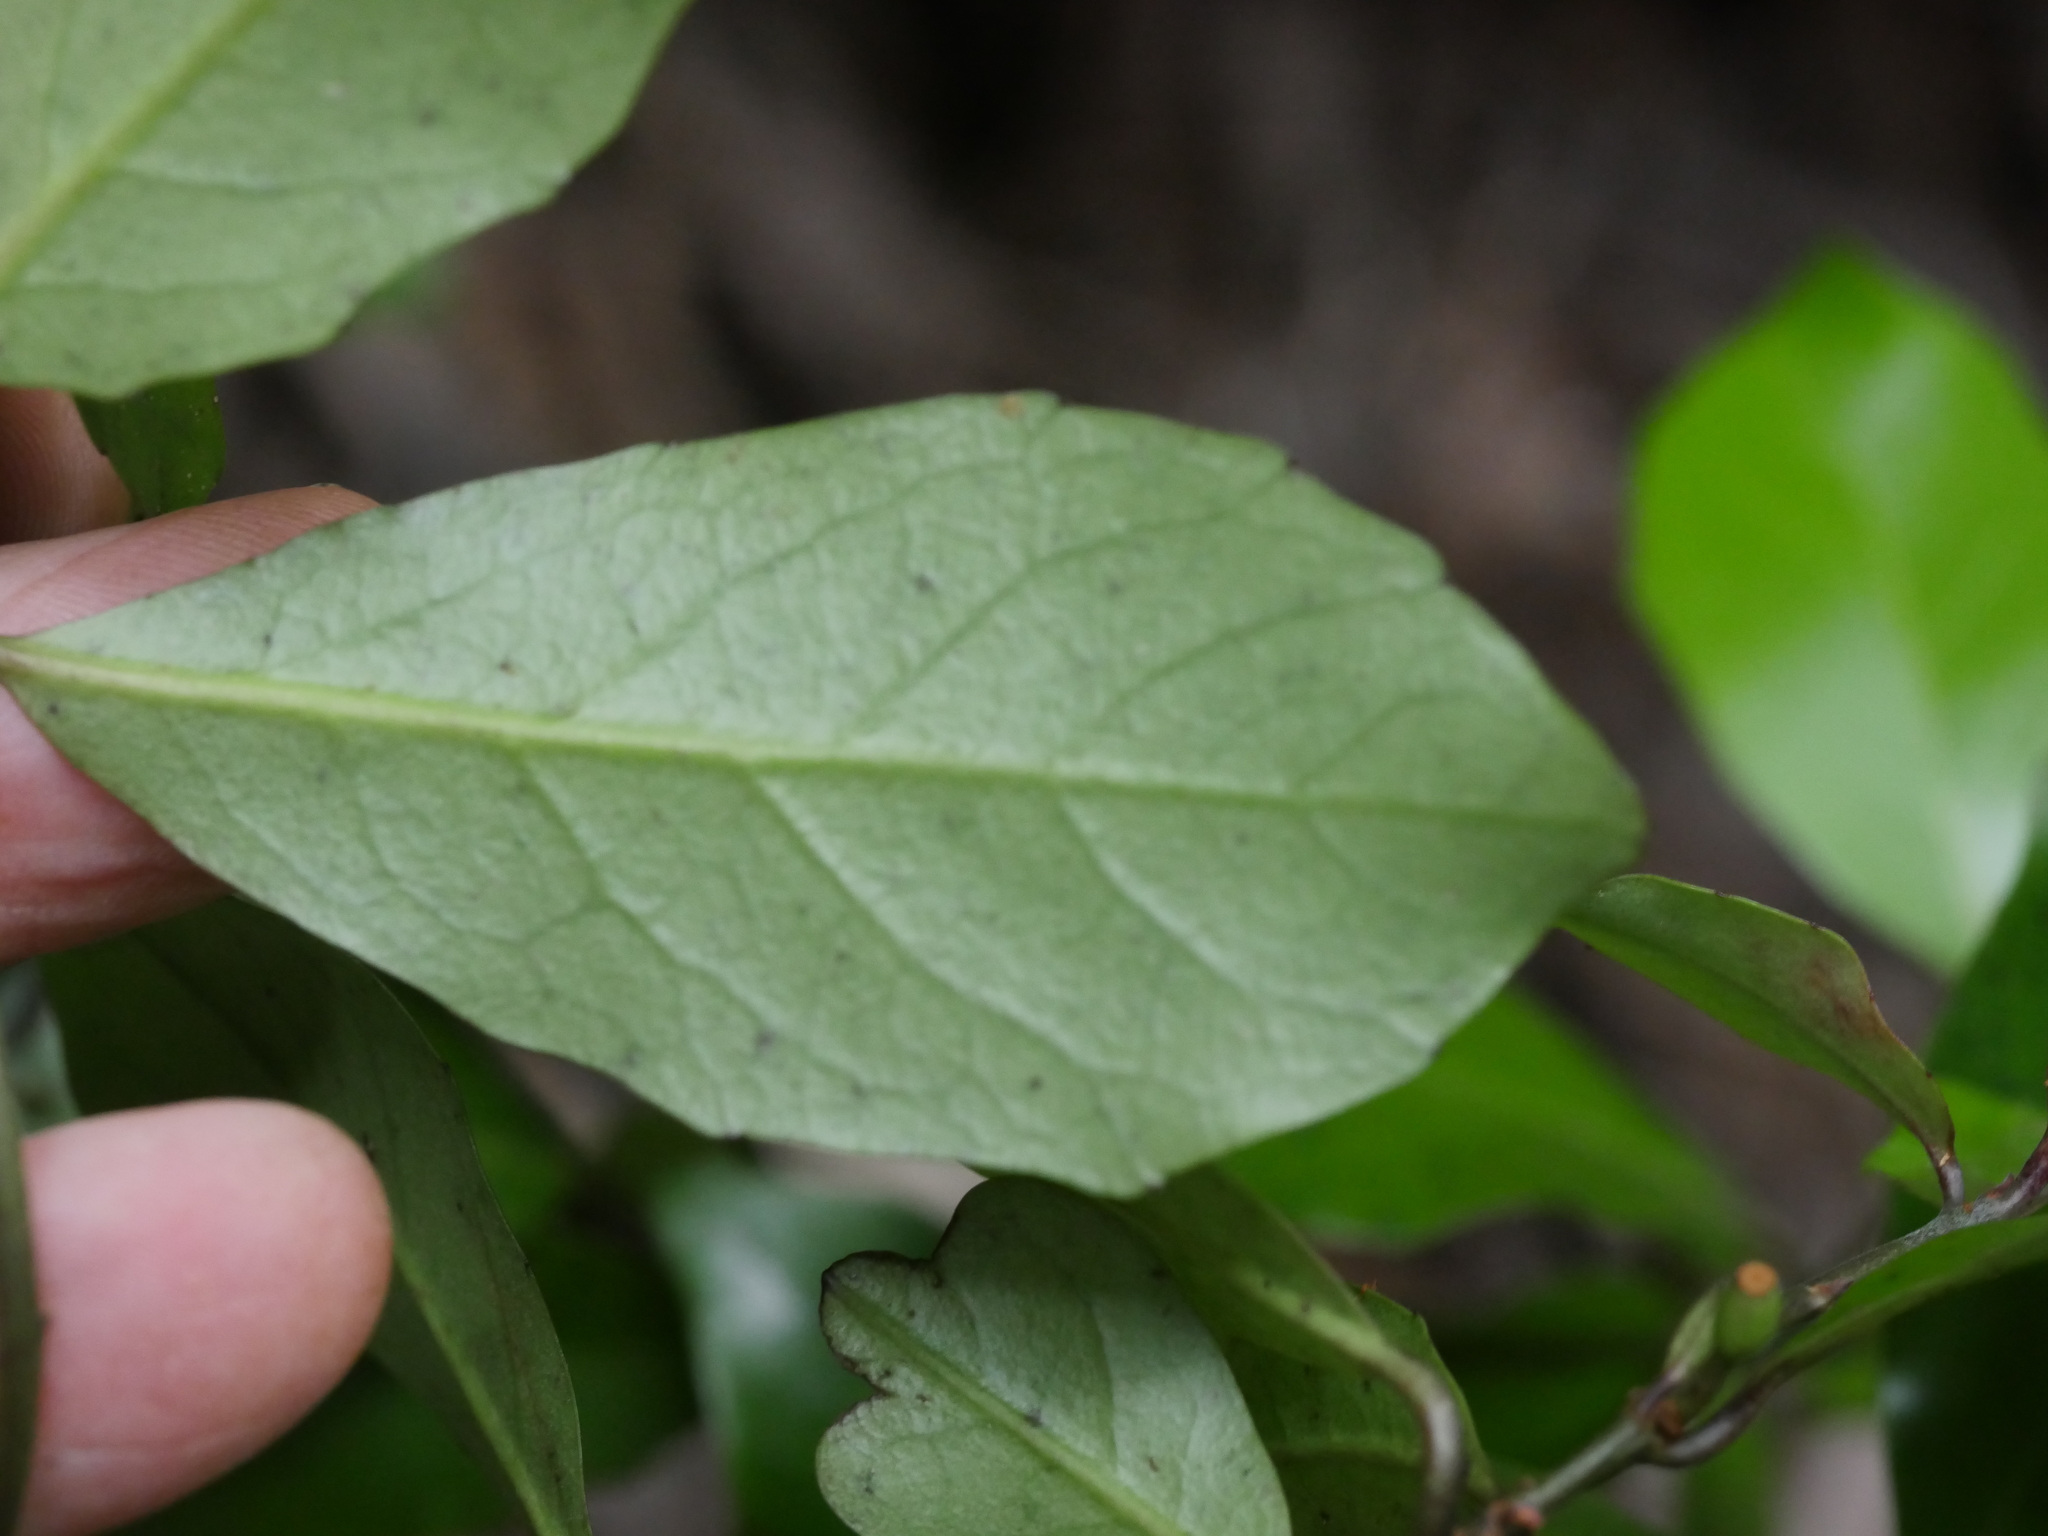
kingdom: Plantae
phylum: Tracheophyta
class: Magnoliopsida
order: Asterales
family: Alseuosmiaceae
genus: Alseuosmia
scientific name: Alseuosmia quercifolia
